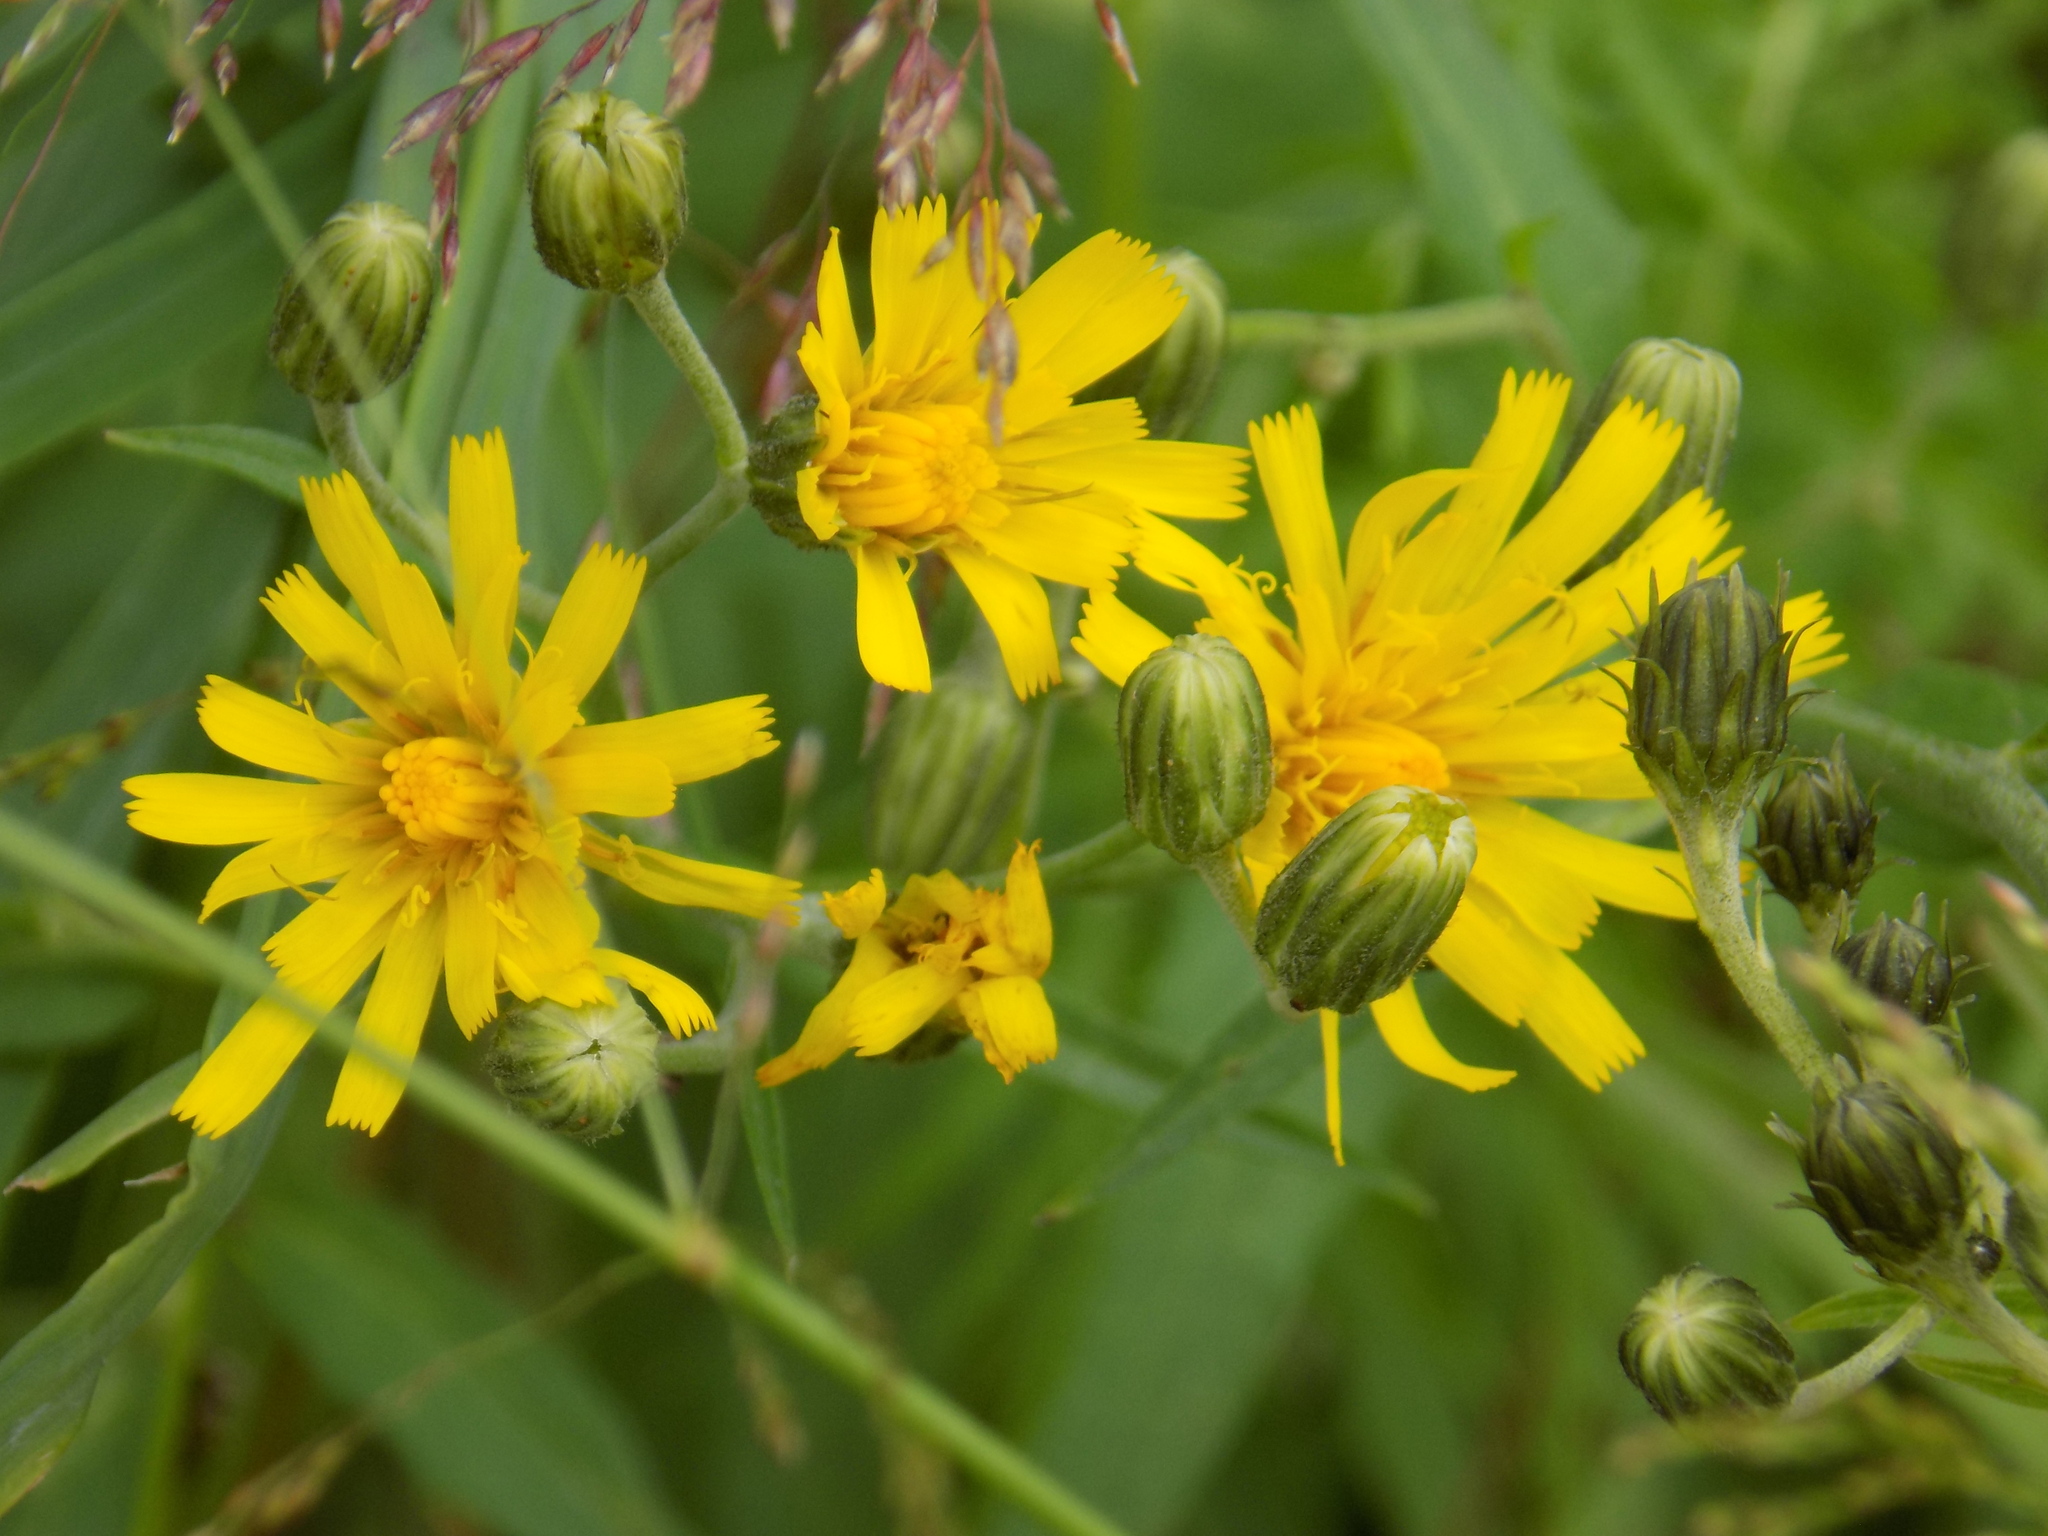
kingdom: Plantae
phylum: Tracheophyta
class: Magnoliopsida
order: Asterales
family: Asteraceae
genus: Hieracium
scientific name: Hieracium umbellatum
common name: Northern hawkweed
